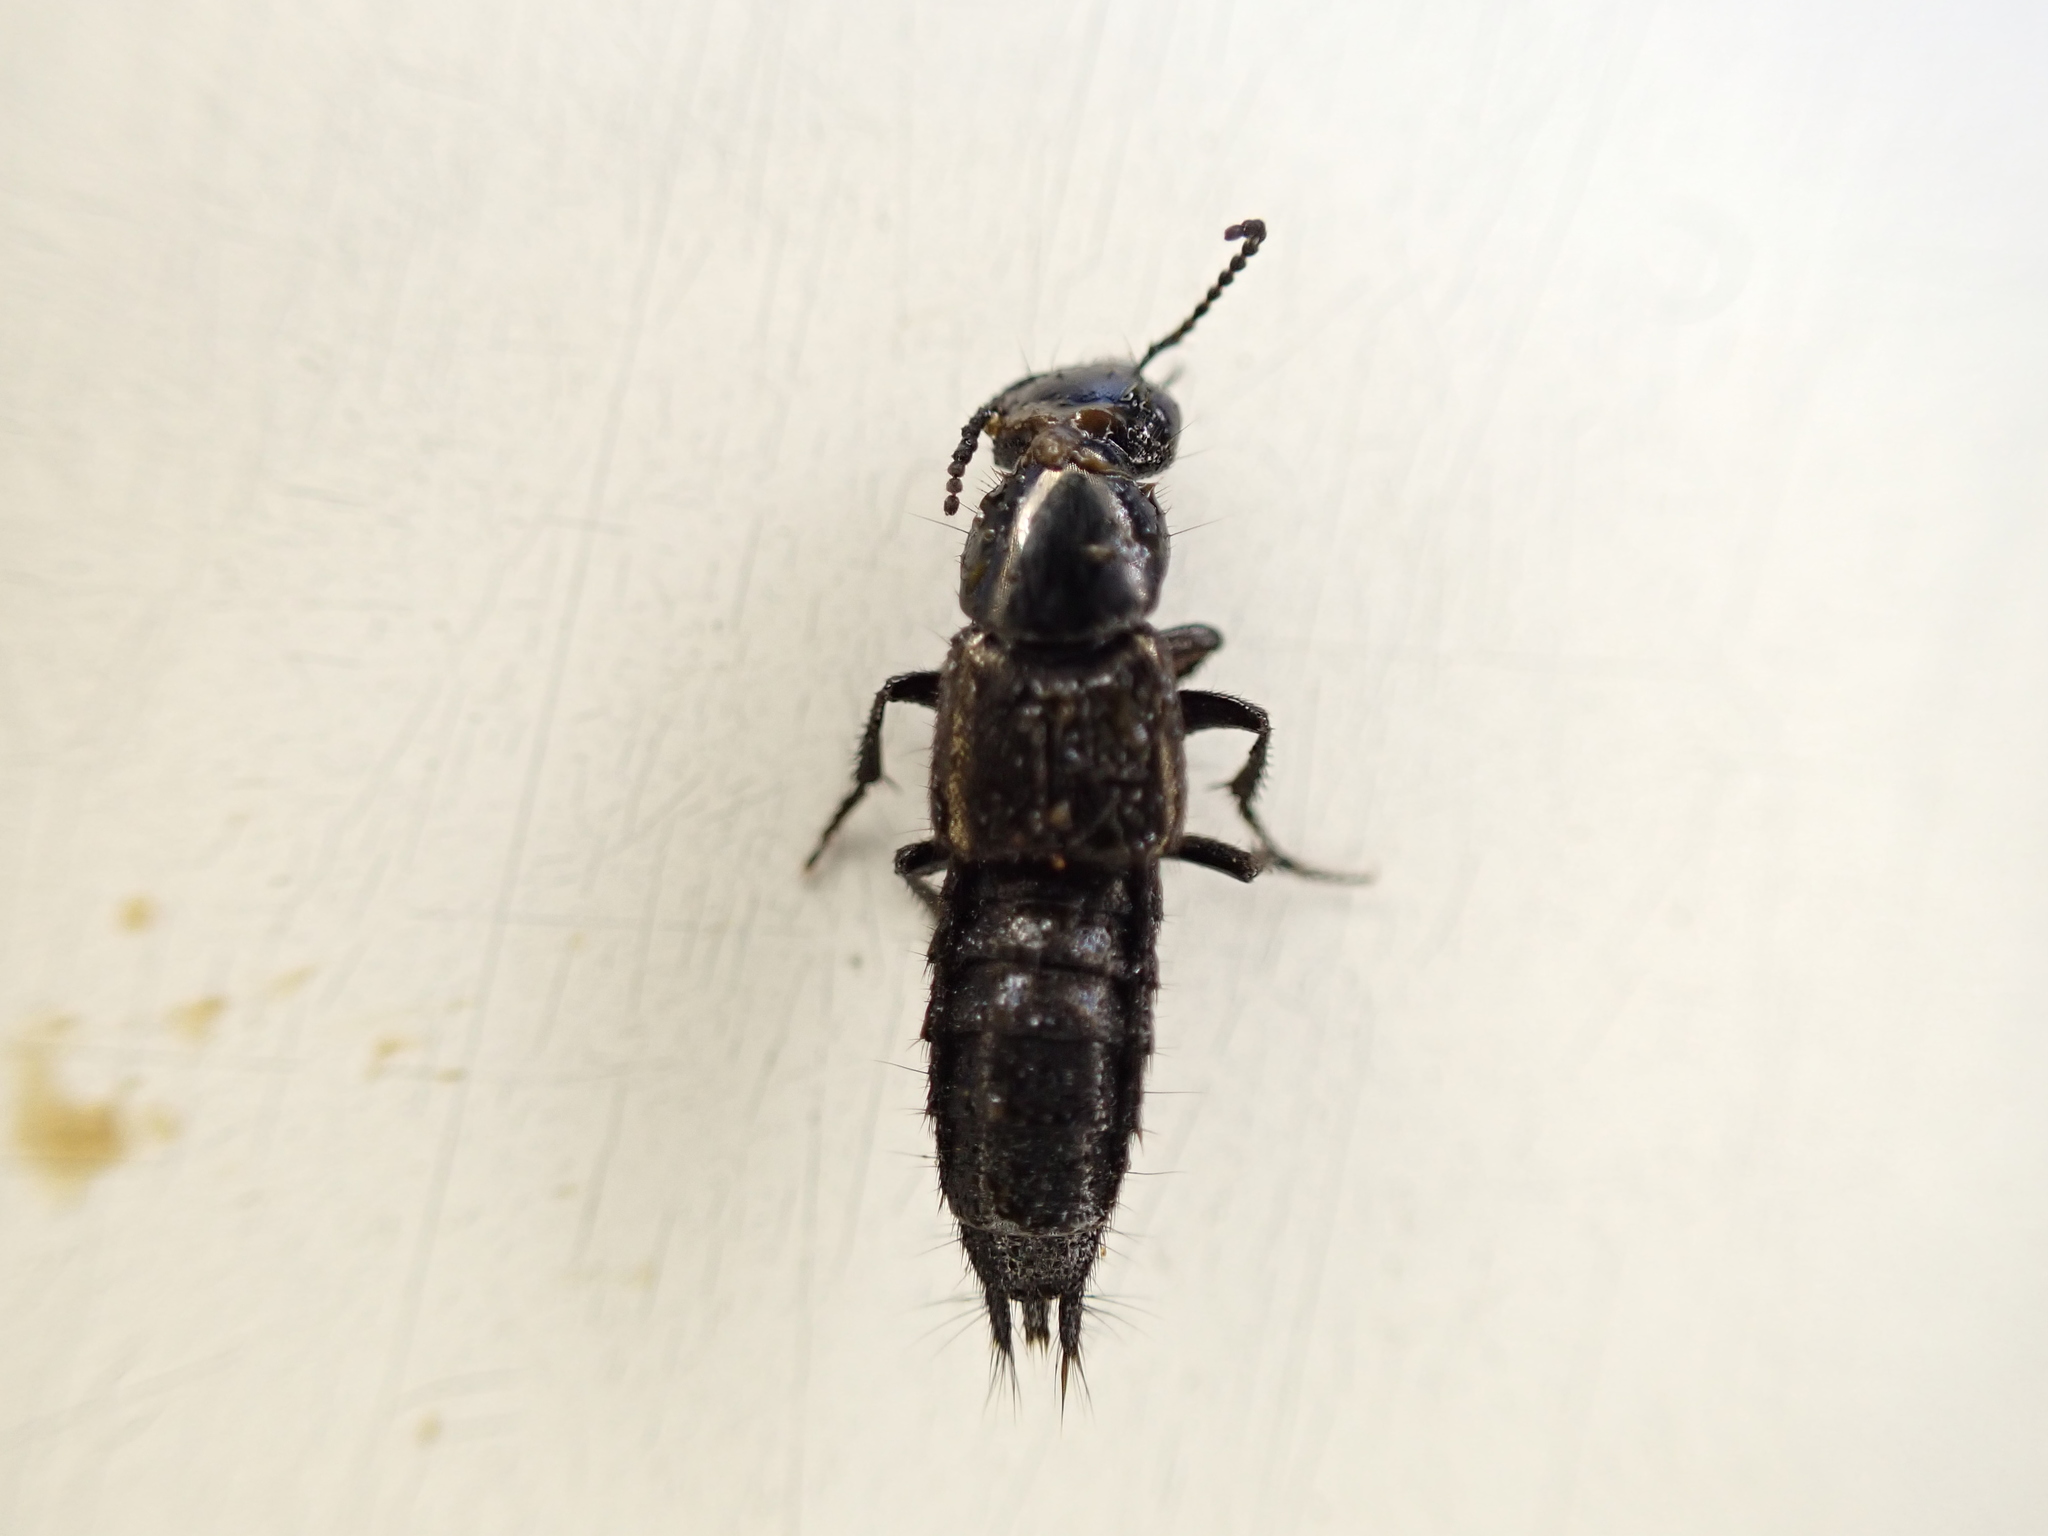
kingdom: Animalia
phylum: Arthropoda
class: Insecta
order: Coleoptera
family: Staphylinidae
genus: Philonthus
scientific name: Philonthus splendens
